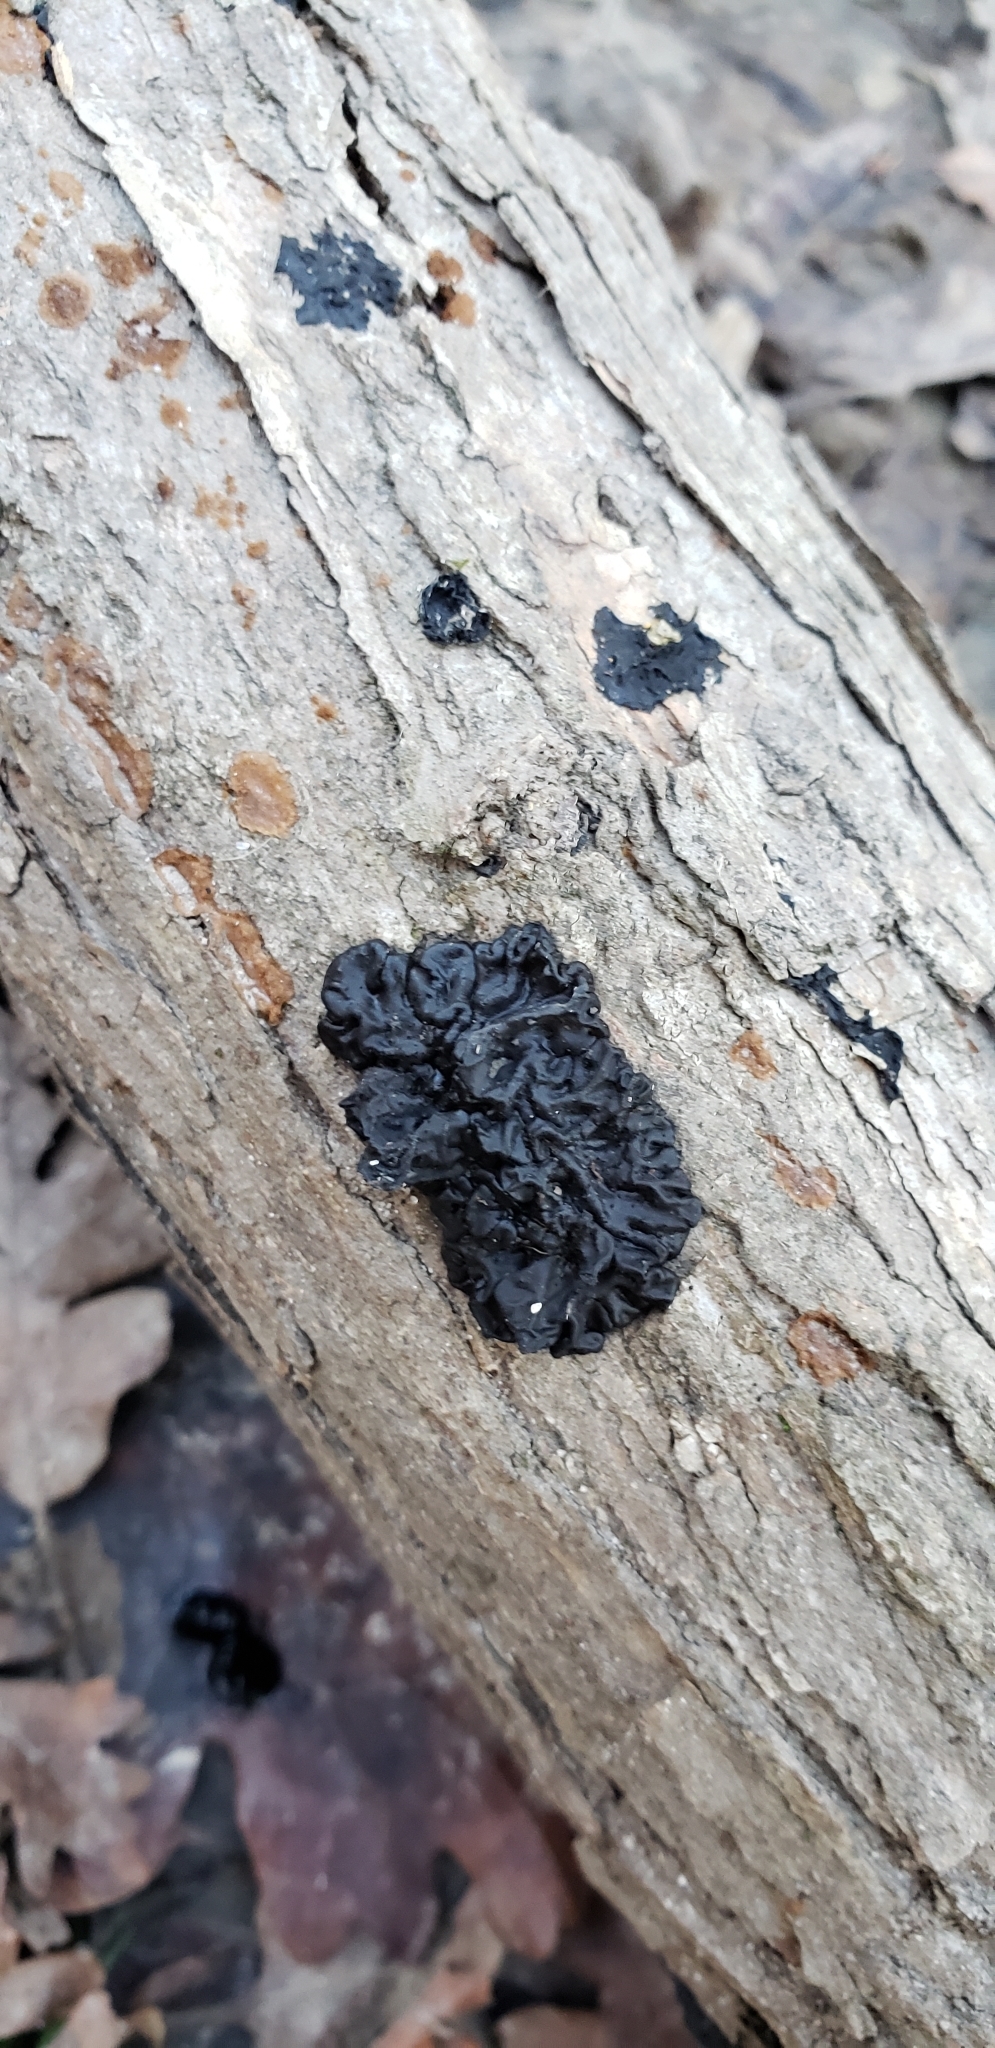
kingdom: Fungi
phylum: Basidiomycota
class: Agaricomycetes
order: Auriculariales
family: Auriculariaceae
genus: Exidia
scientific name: Exidia glandulosa
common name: Witches' butter
